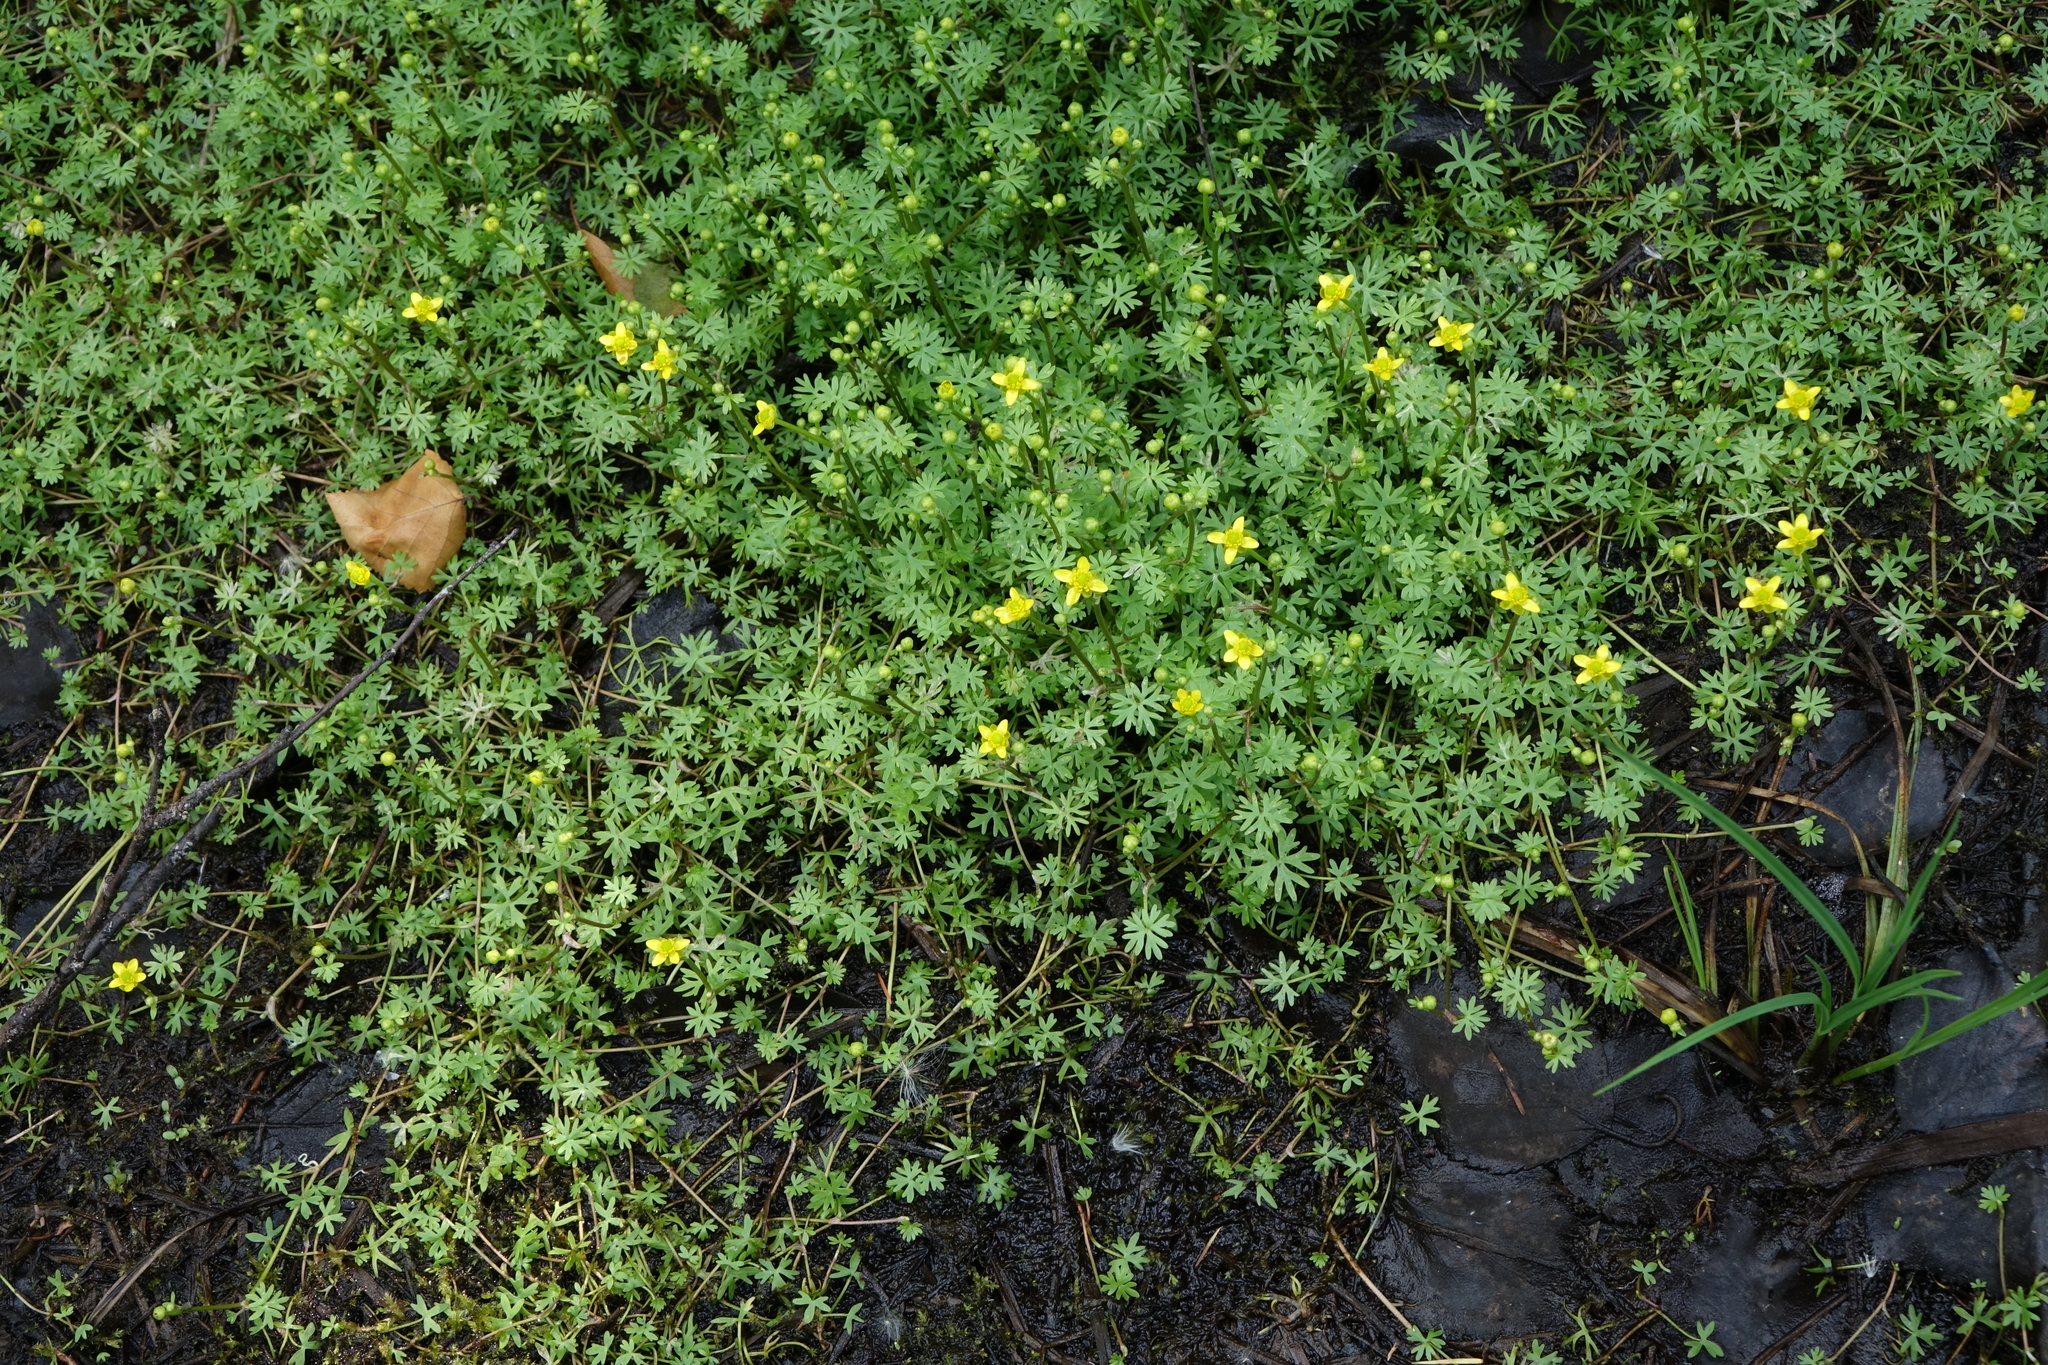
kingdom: Plantae
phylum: Tracheophyta
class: Magnoliopsida
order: Ranunculales
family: Ranunculaceae
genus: Ranunculus
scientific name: Ranunculus gmelinii
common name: Gmelin's buttercup
